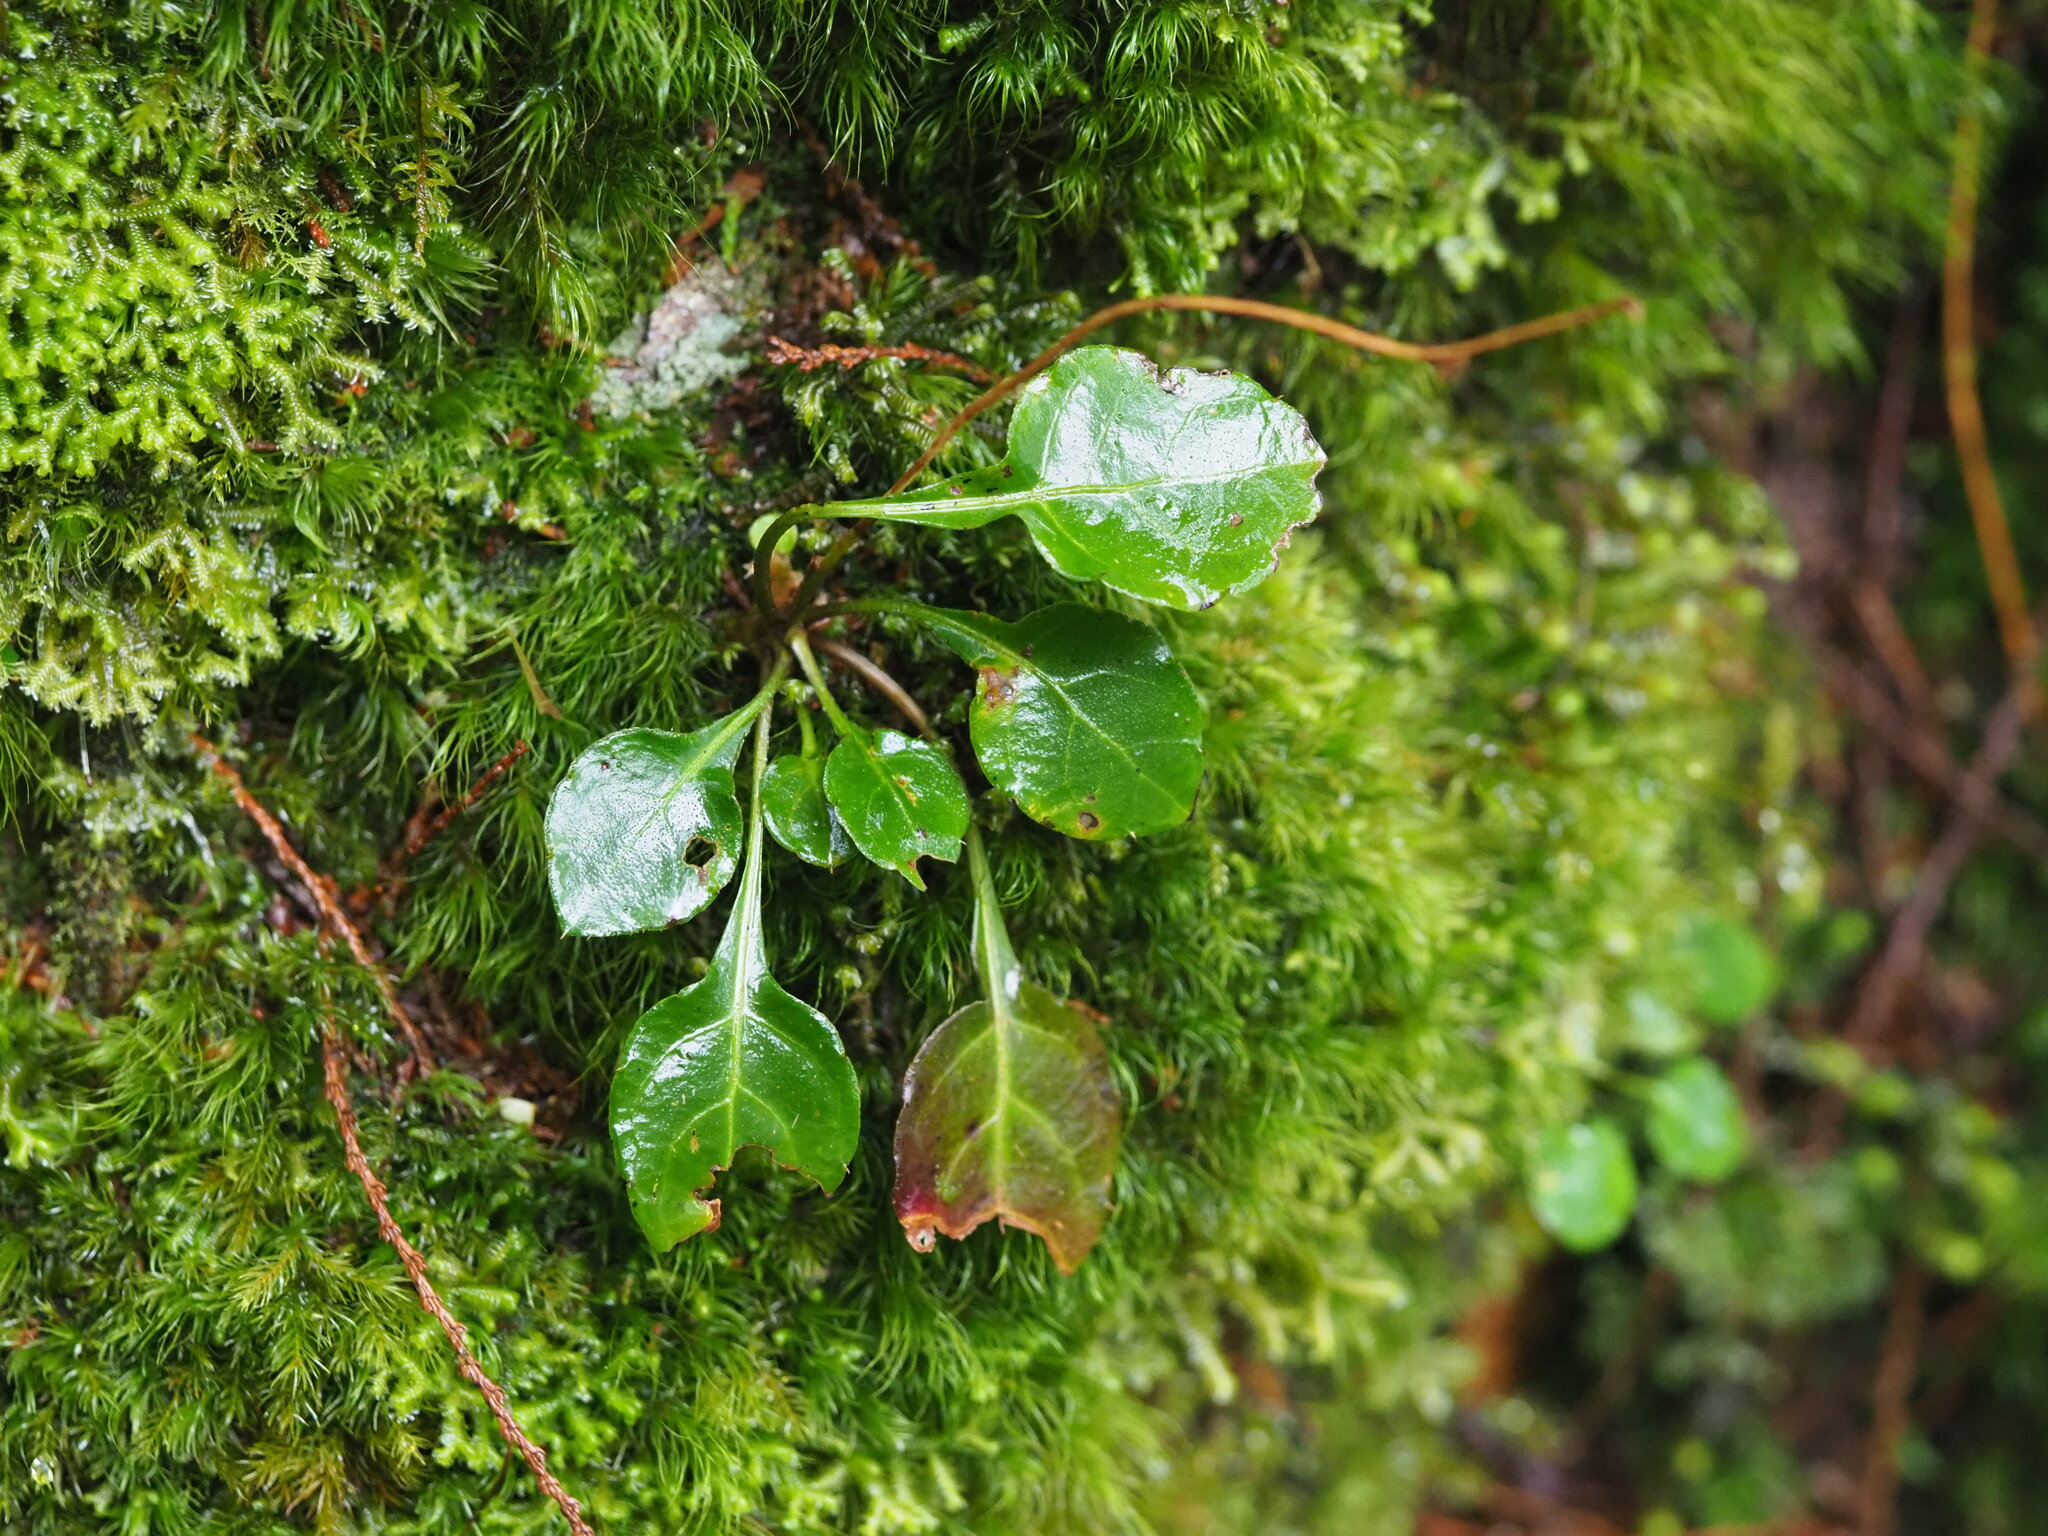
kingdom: Plantae
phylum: Tracheophyta
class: Magnoliopsida
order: Ericales
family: Diapensiaceae
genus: Shortia
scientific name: Shortia rotundifolia
